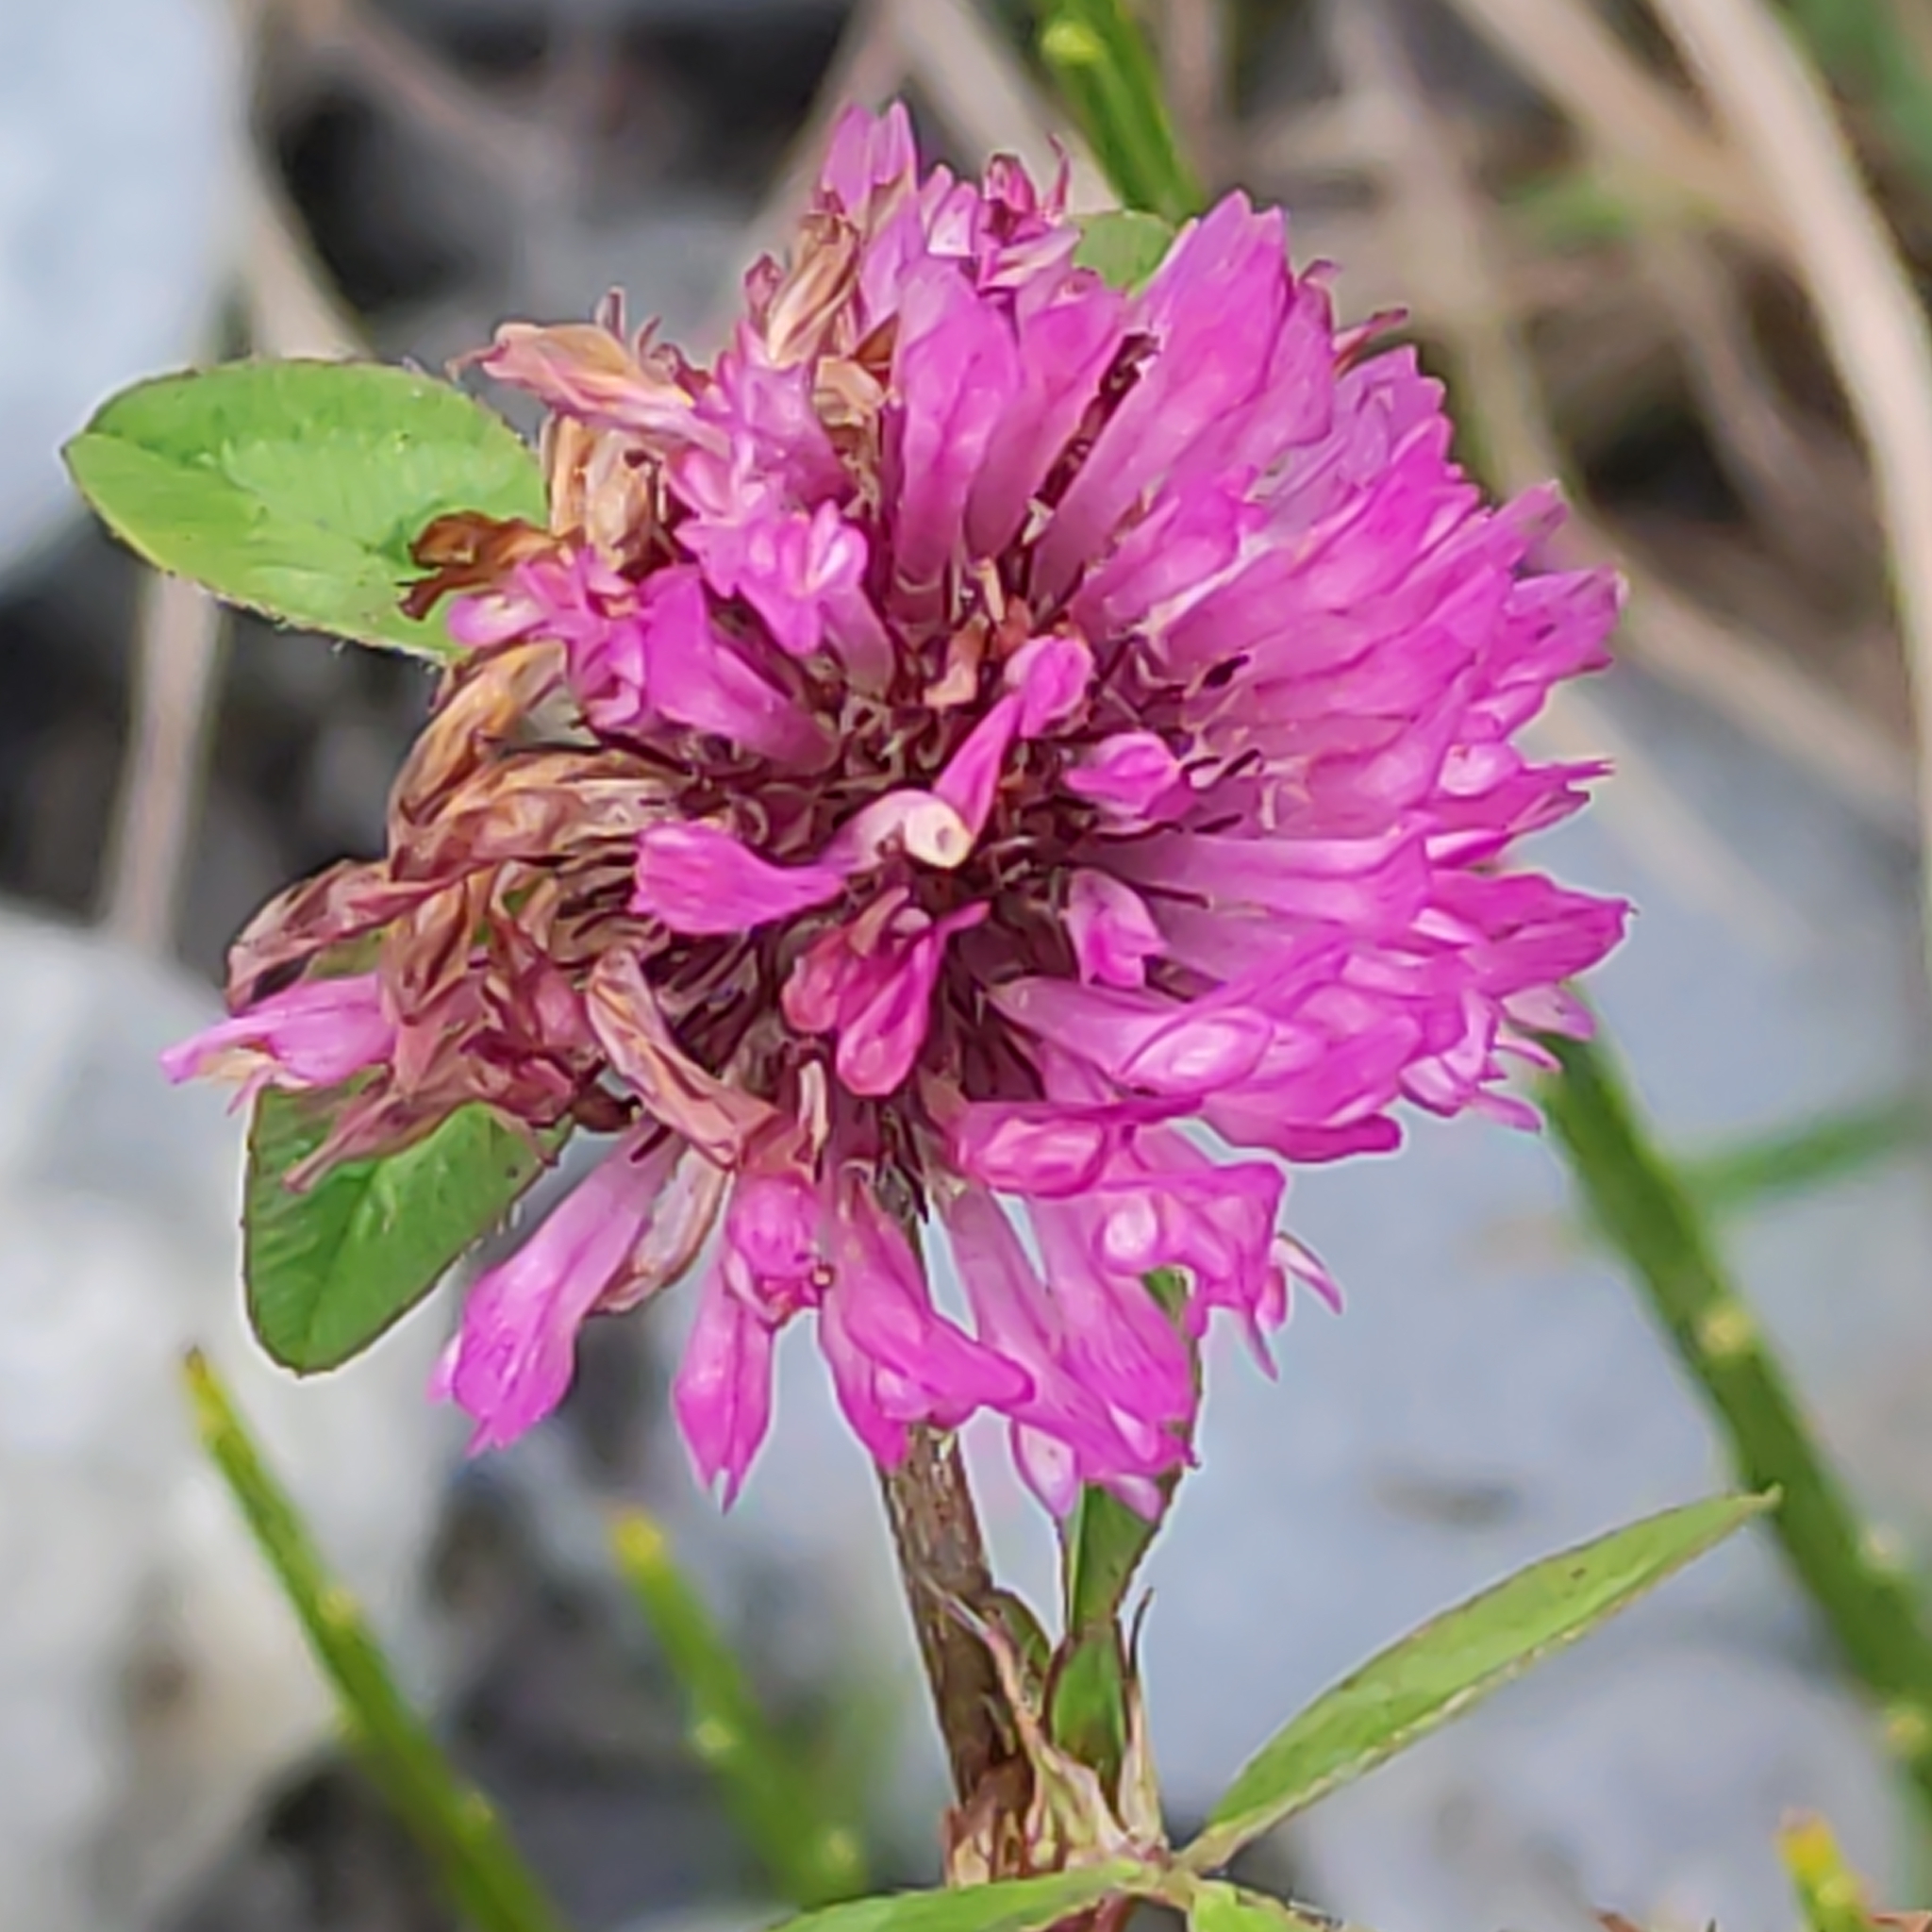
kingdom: Plantae
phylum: Tracheophyta
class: Magnoliopsida
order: Fabales
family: Fabaceae
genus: Trifolium
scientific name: Trifolium pratense
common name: Red clover
